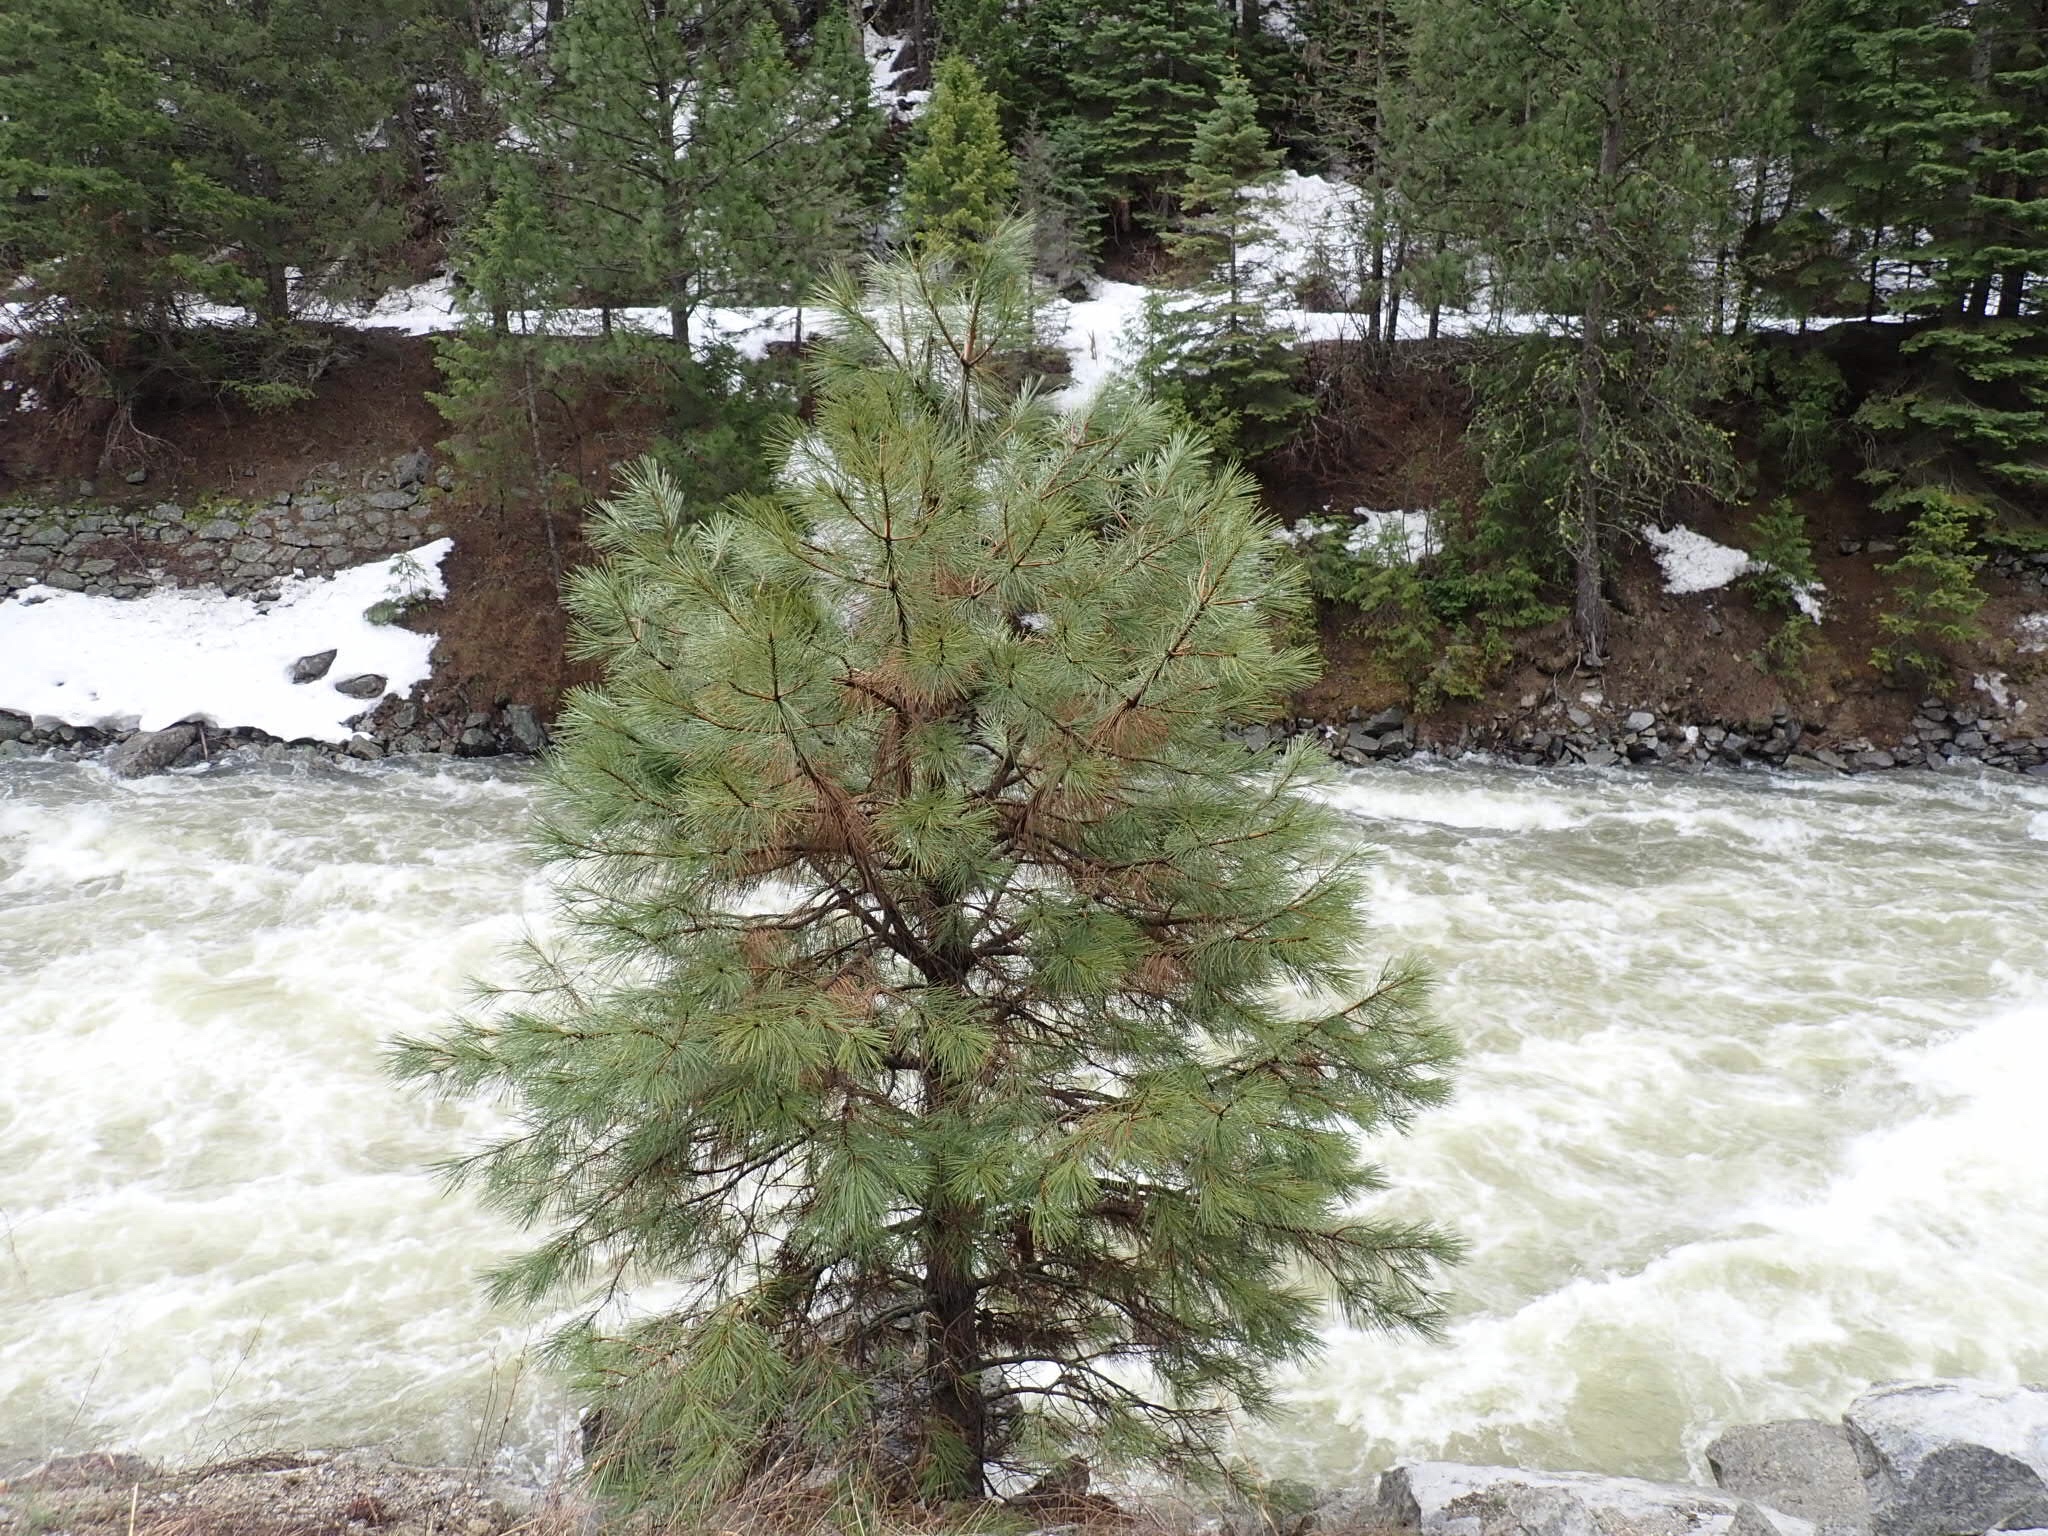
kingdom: Plantae
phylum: Tracheophyta
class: Pinopsida
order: Pinales
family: Pinaceae
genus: Pinus
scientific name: Pinus ponderosa
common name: Western yellow-pine
